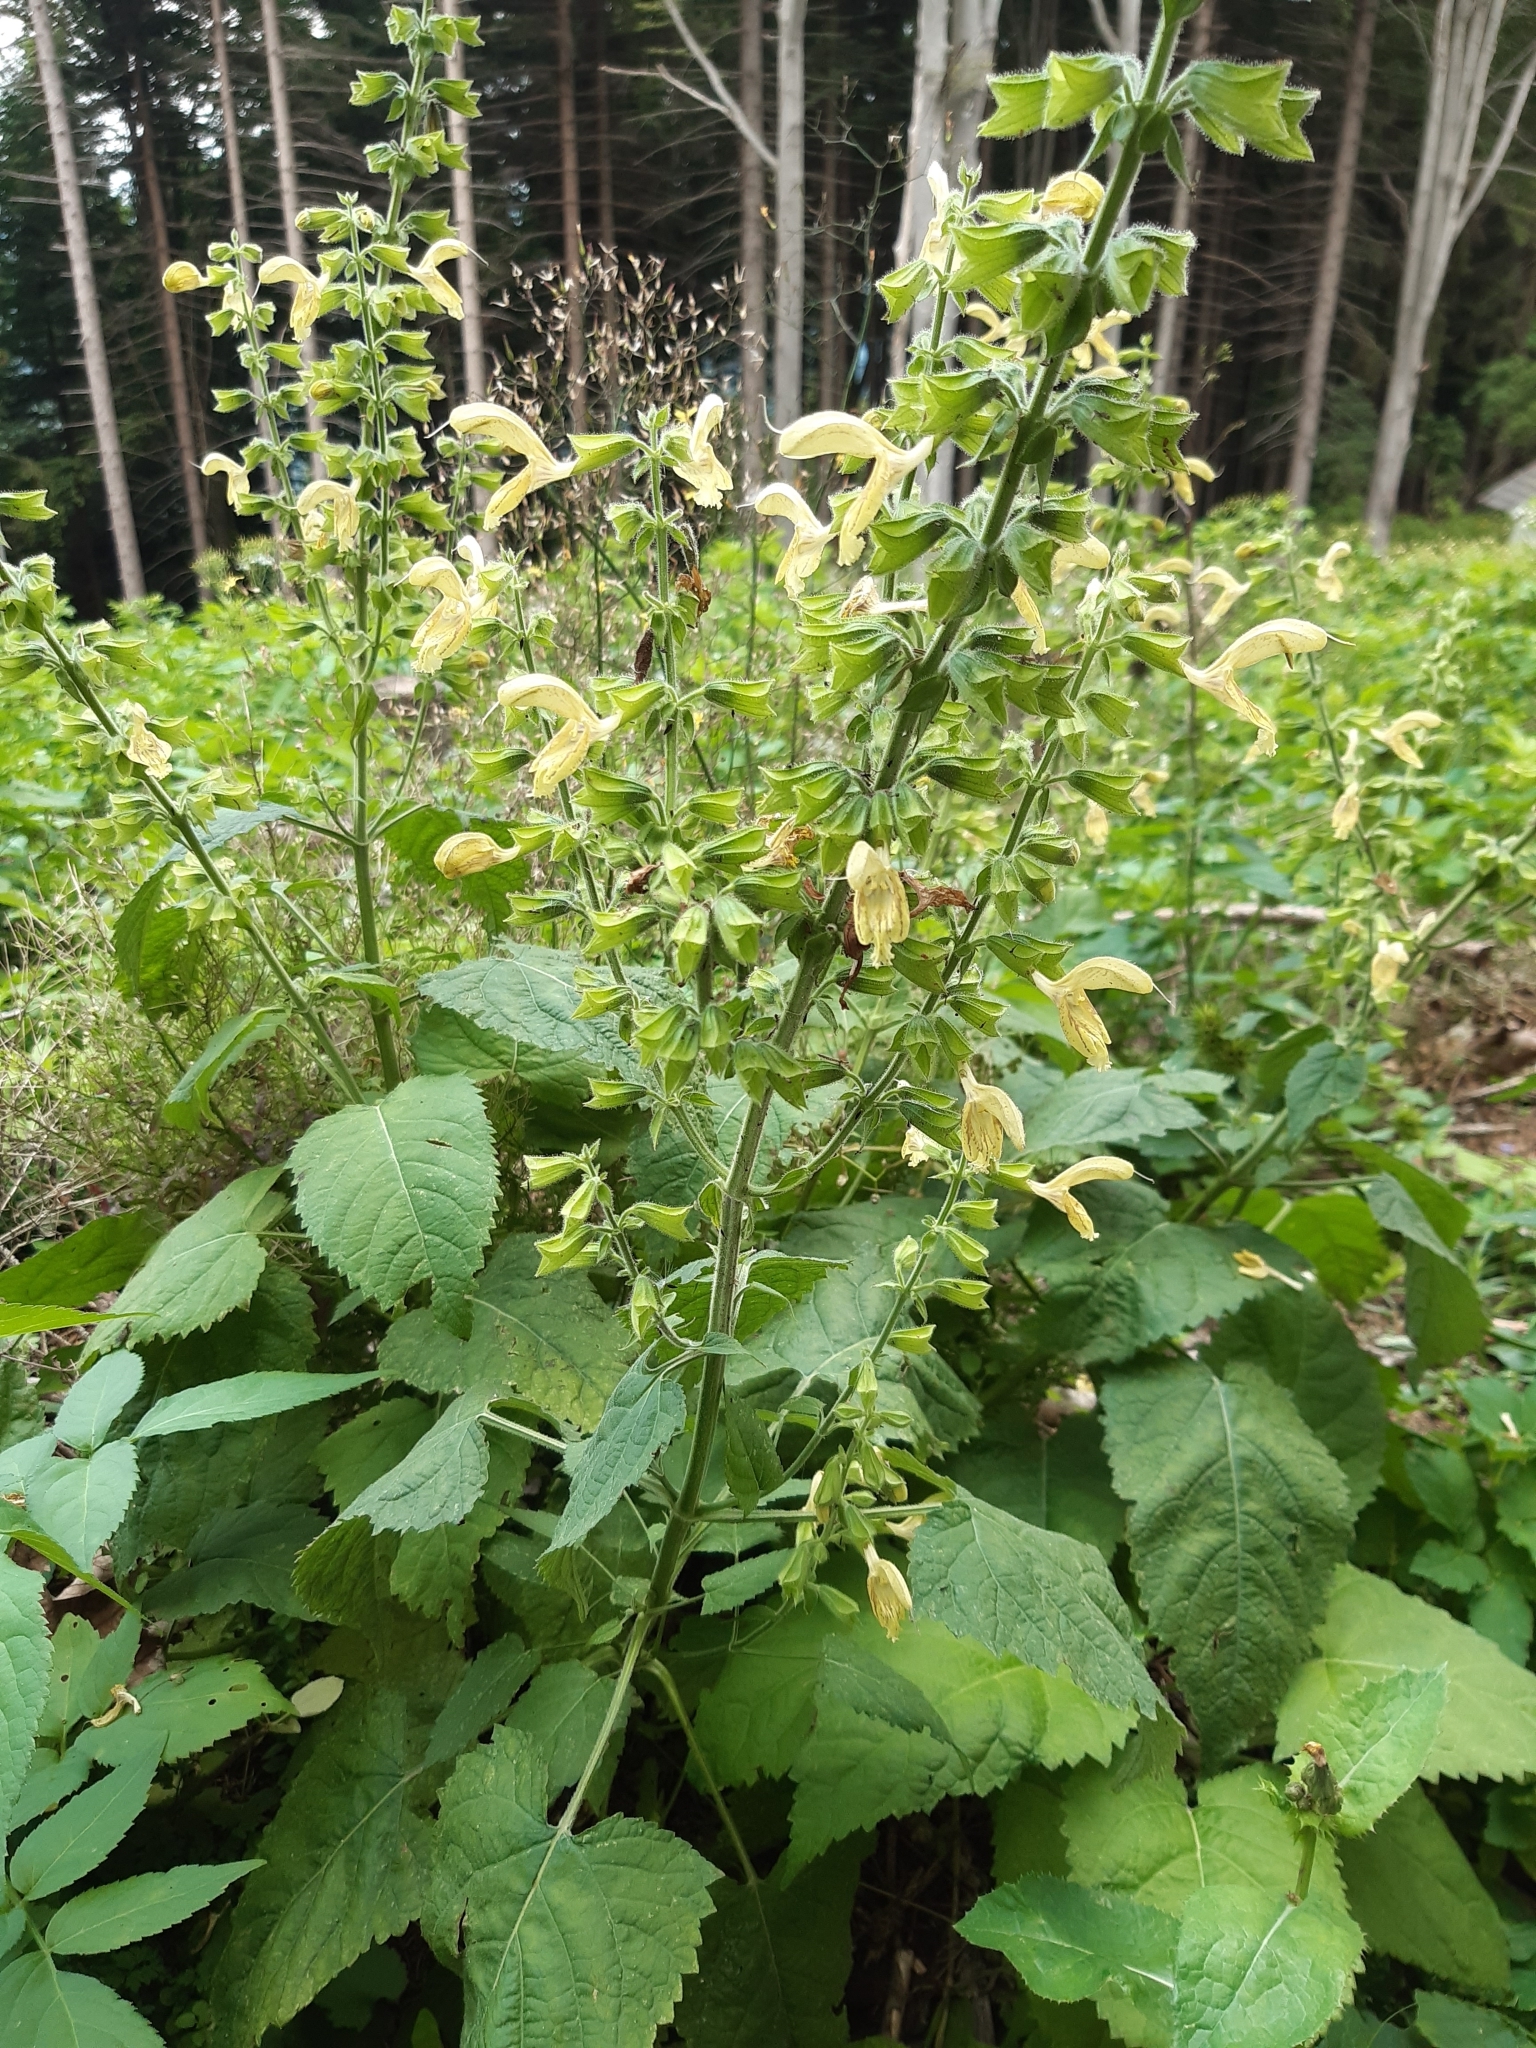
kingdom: Plantae
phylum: Tracheophyta
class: Magnoliopsida
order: Lamiales
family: Lamiaceae
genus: Salvia
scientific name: Salvia glutinosa
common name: Sticky clary
